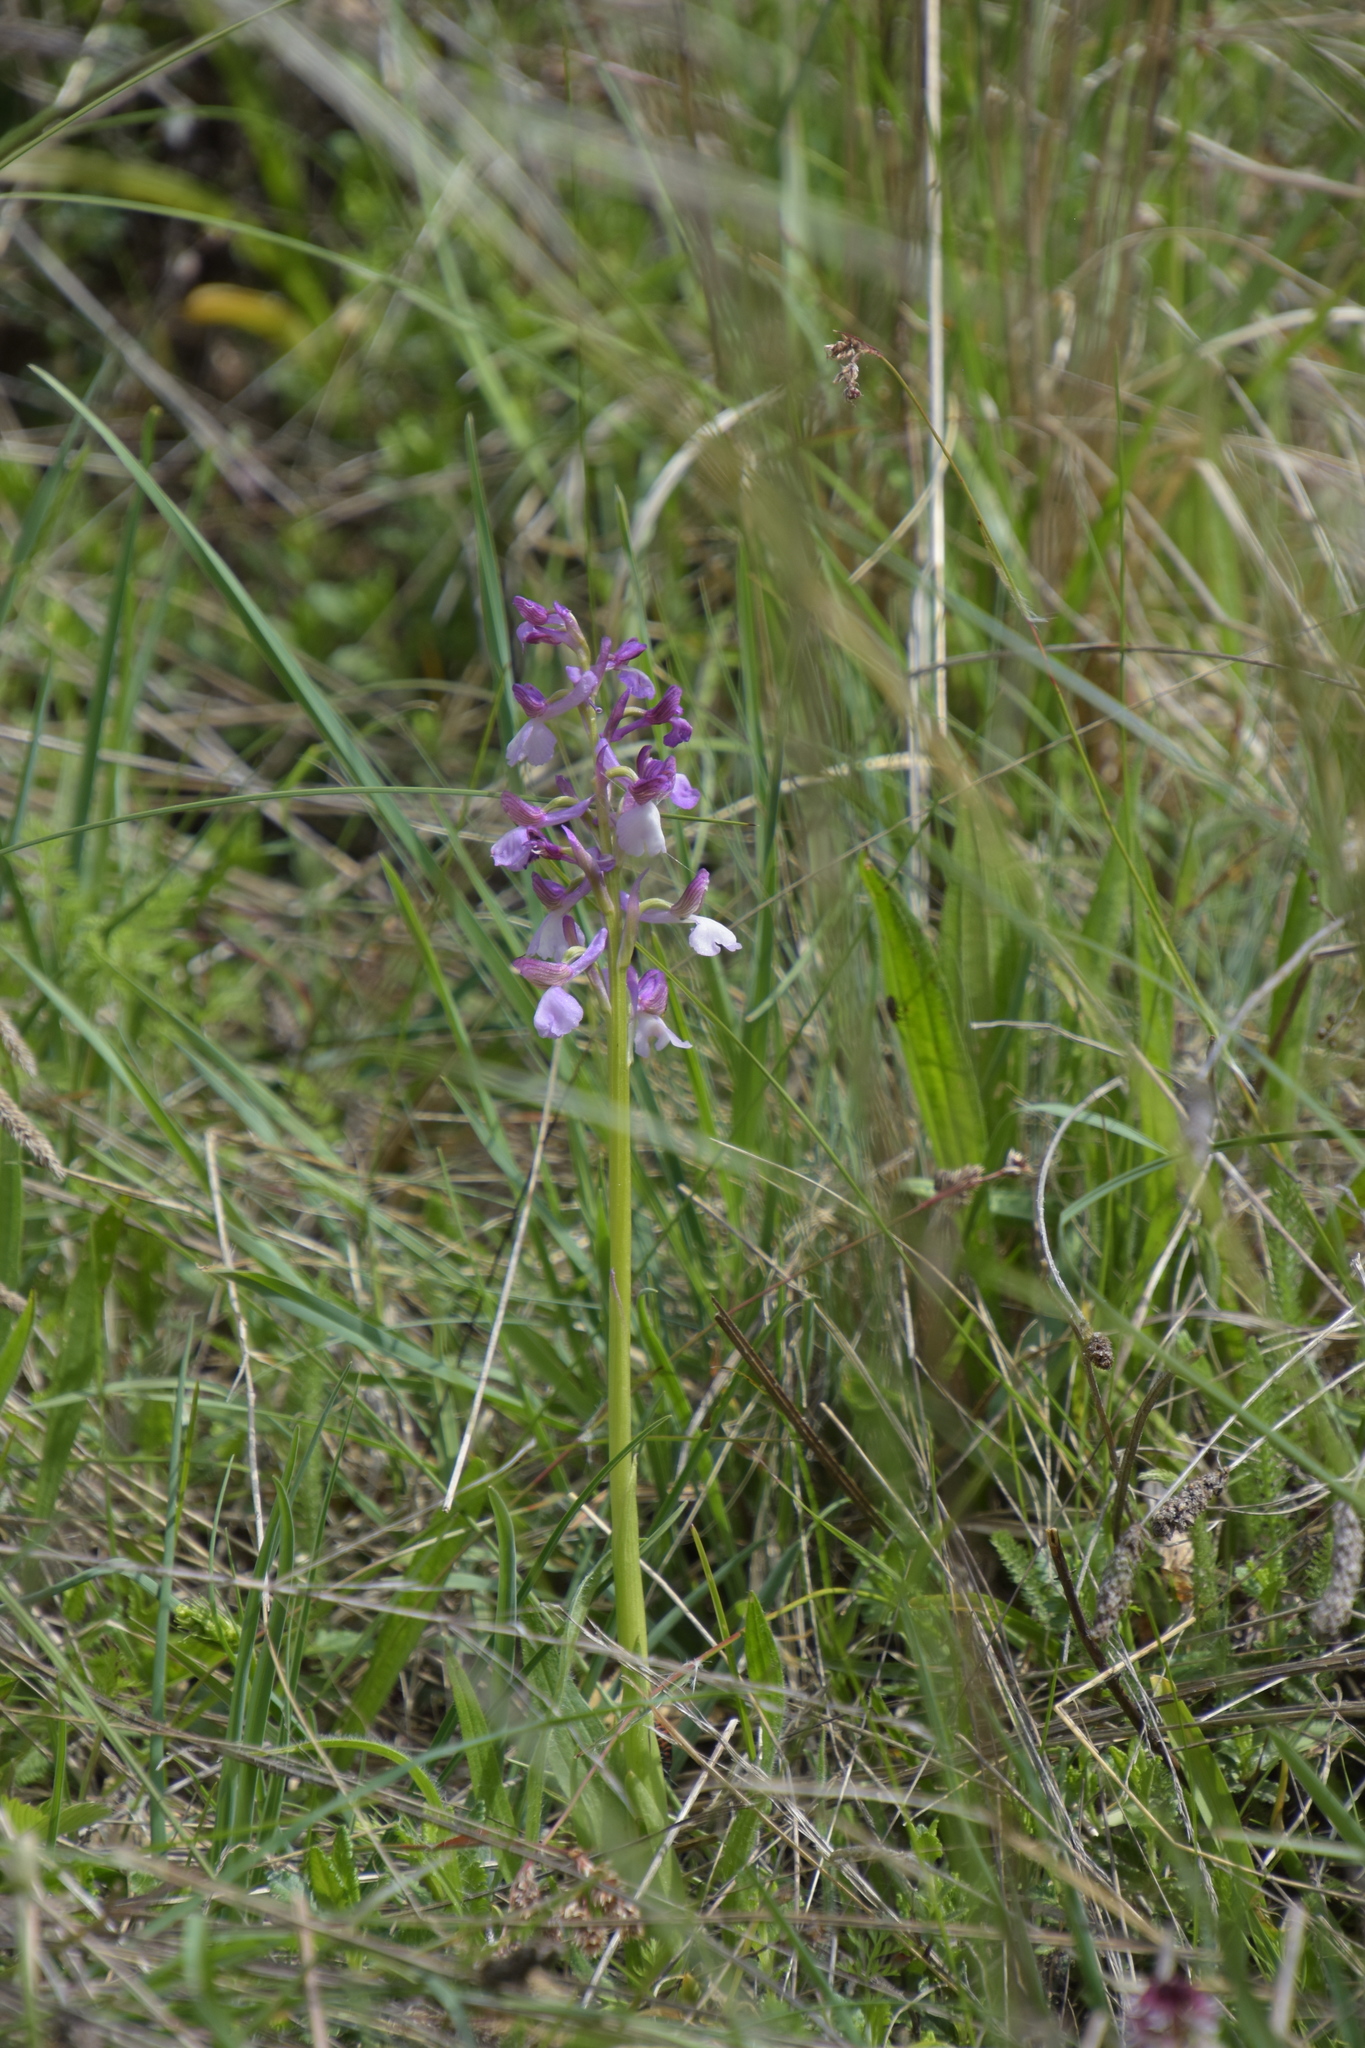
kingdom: Plantae
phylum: Tracheophyta
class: Liliopsida
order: Asparagales
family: Orchidaceae
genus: Anacamptis
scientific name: Anacamptis morio
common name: Green-winged orchid
